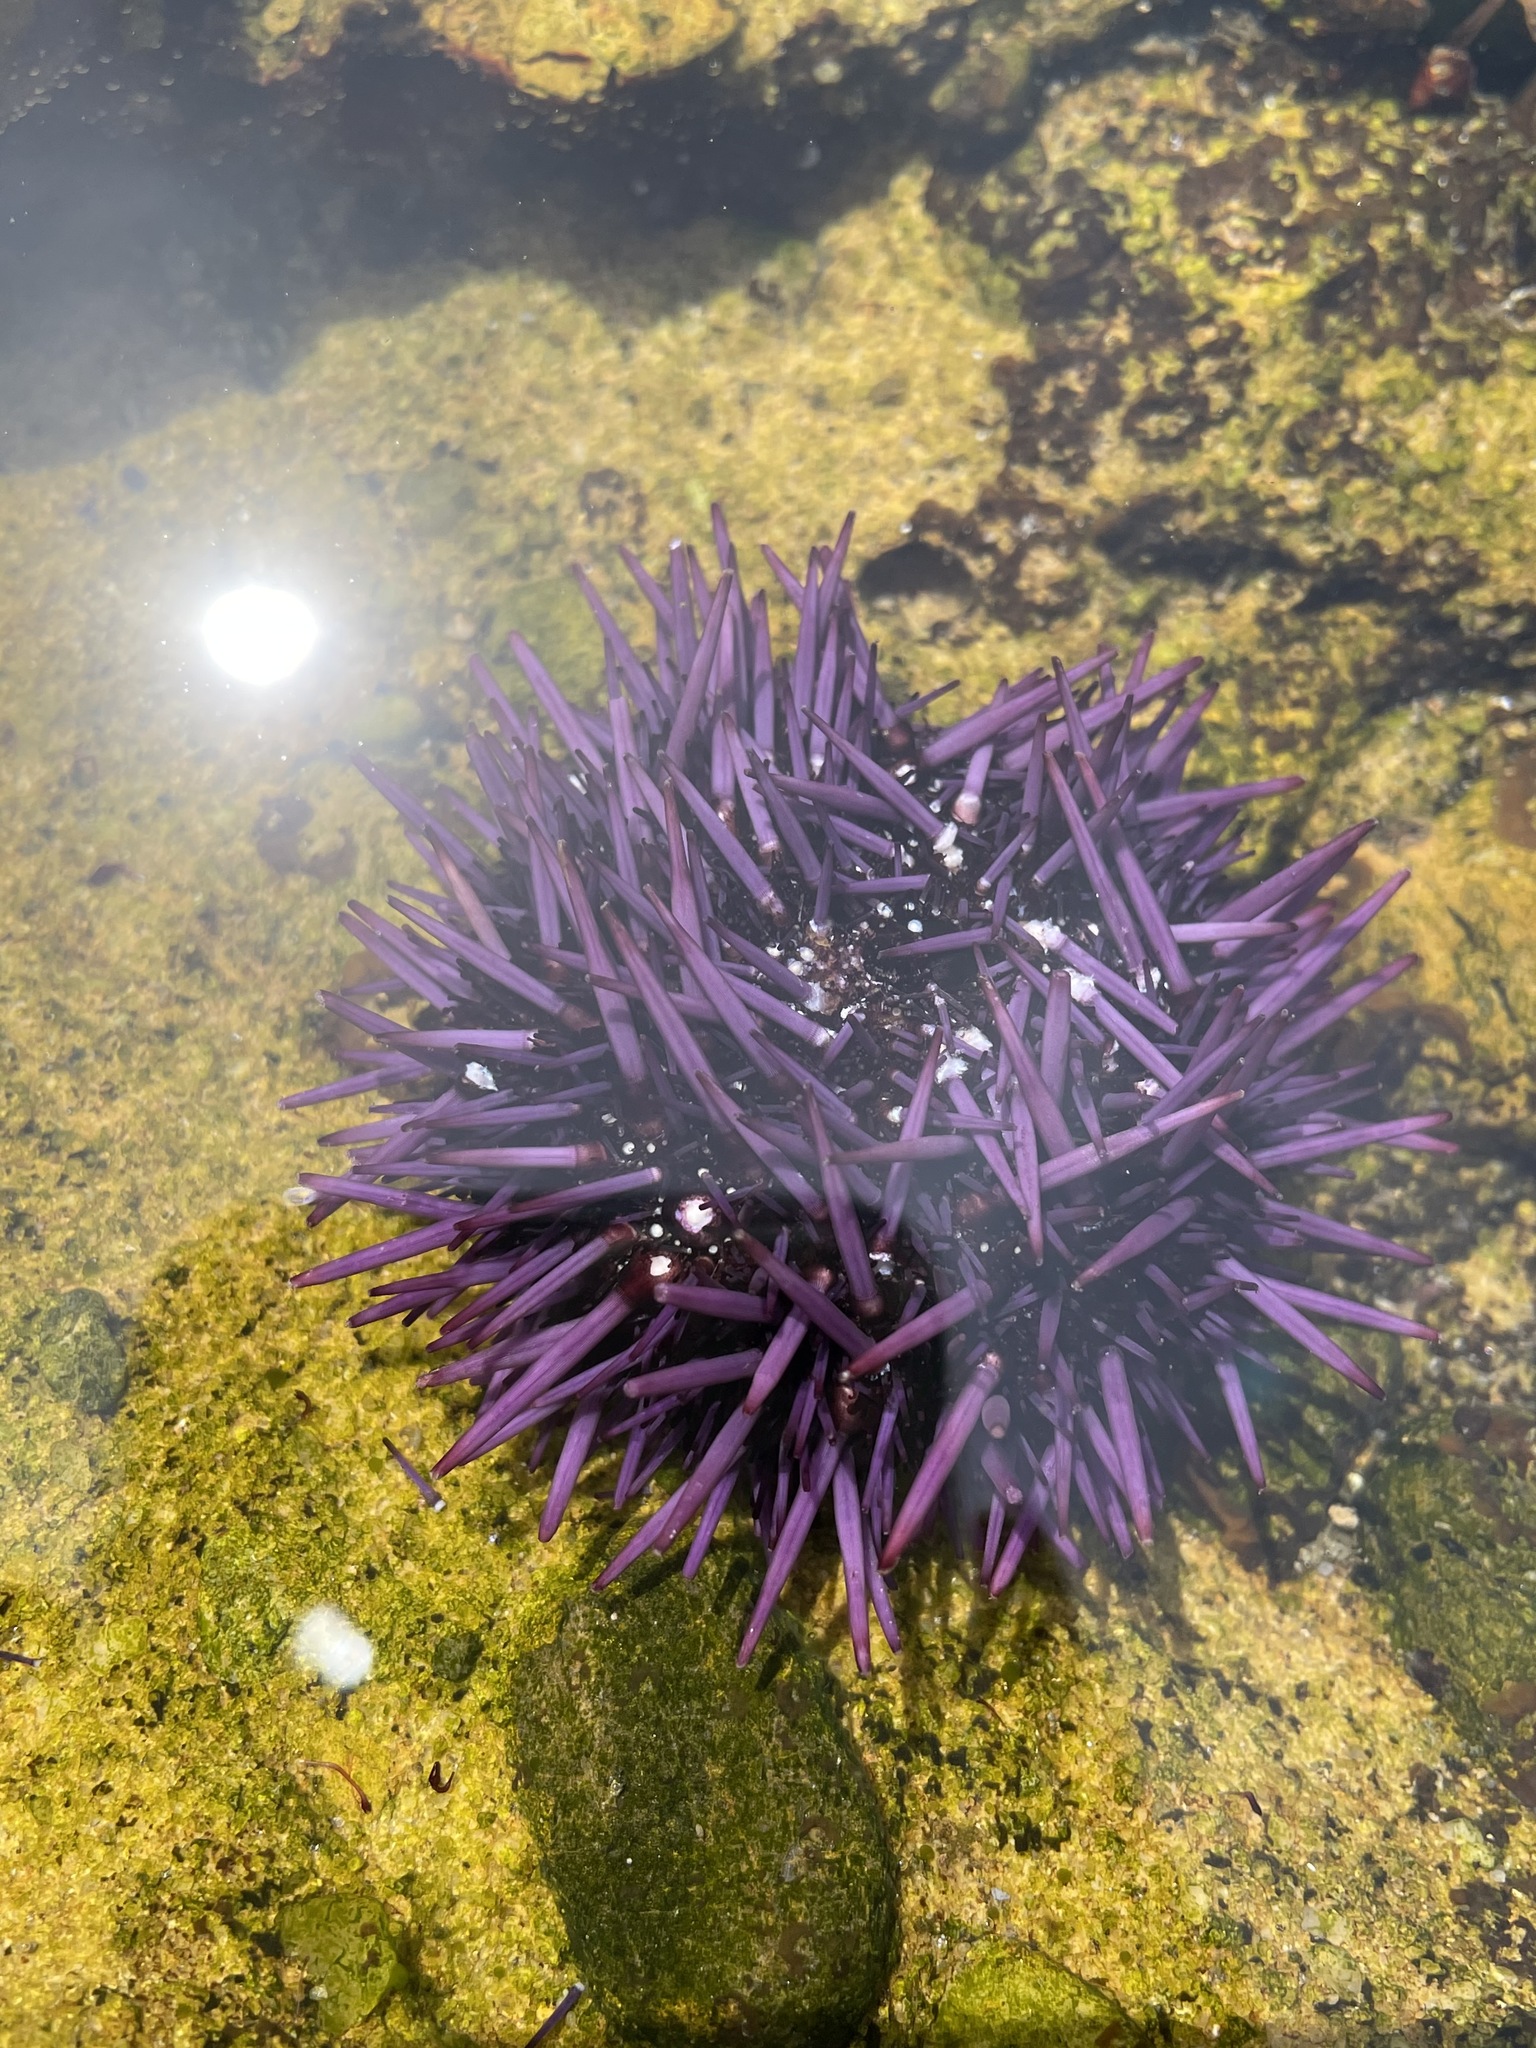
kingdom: Animalia
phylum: Echinodermata
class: Echinoidea
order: Camarodonta
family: Strongylocentrotidae
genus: Strongylocentrotus
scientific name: Strongylocentrotus purpuratus
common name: Purple sea urchin
